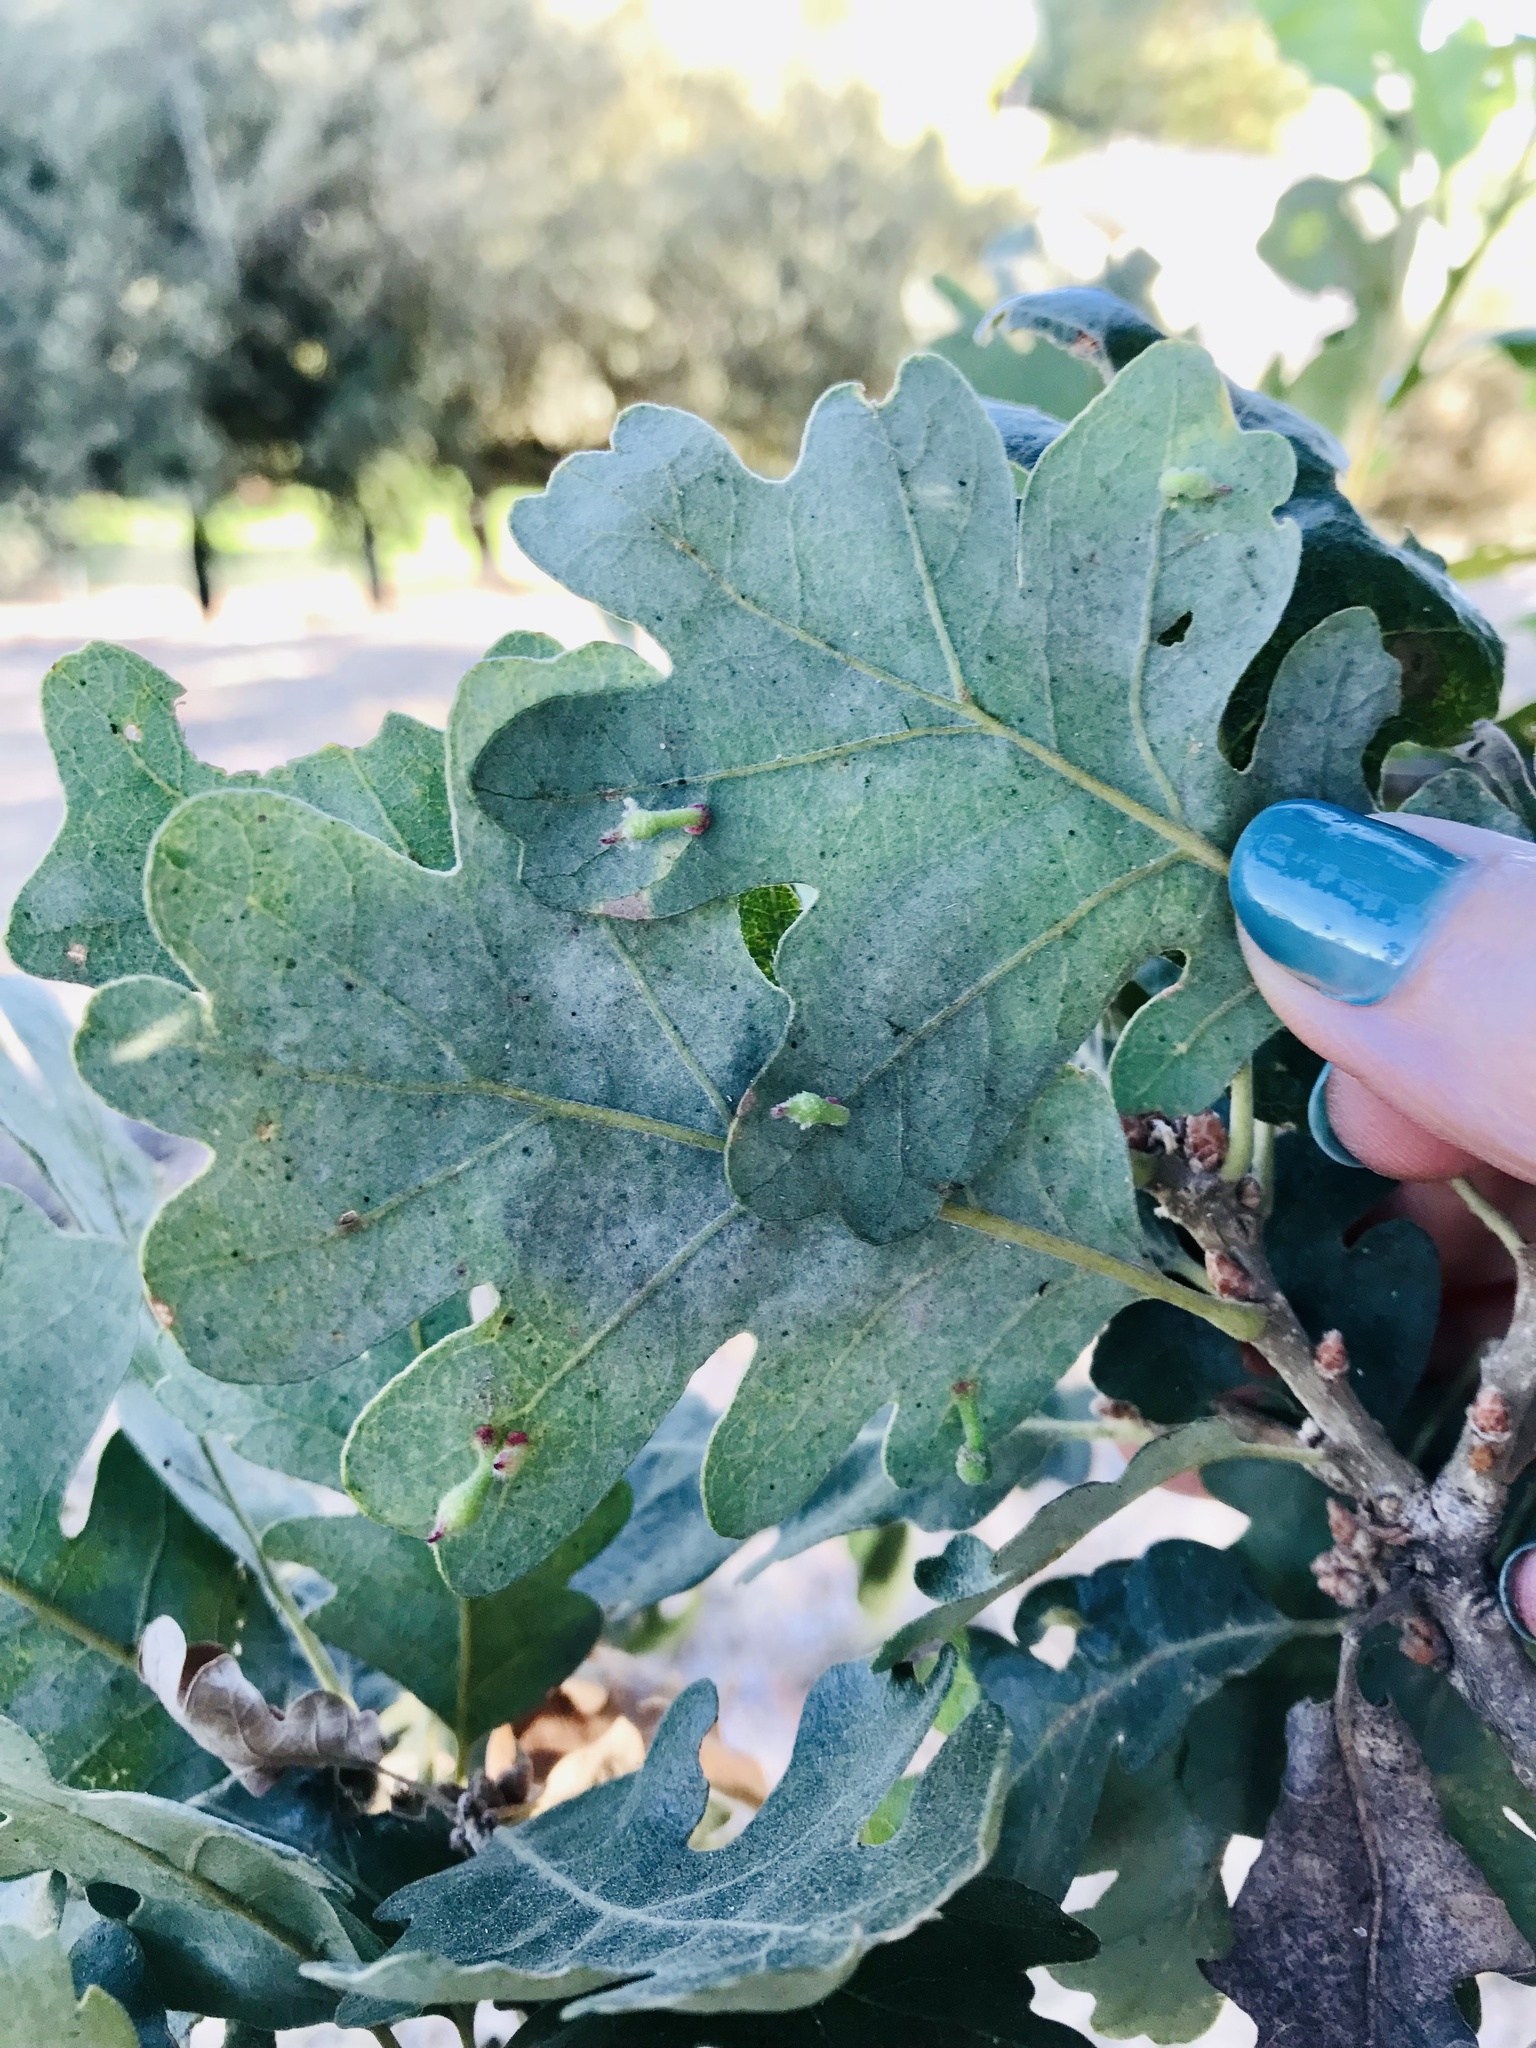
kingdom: Animalia
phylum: Arthropoda
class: Insecta
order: Hymenoptera
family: Cynipidae
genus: Atrusca
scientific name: Atrusca
